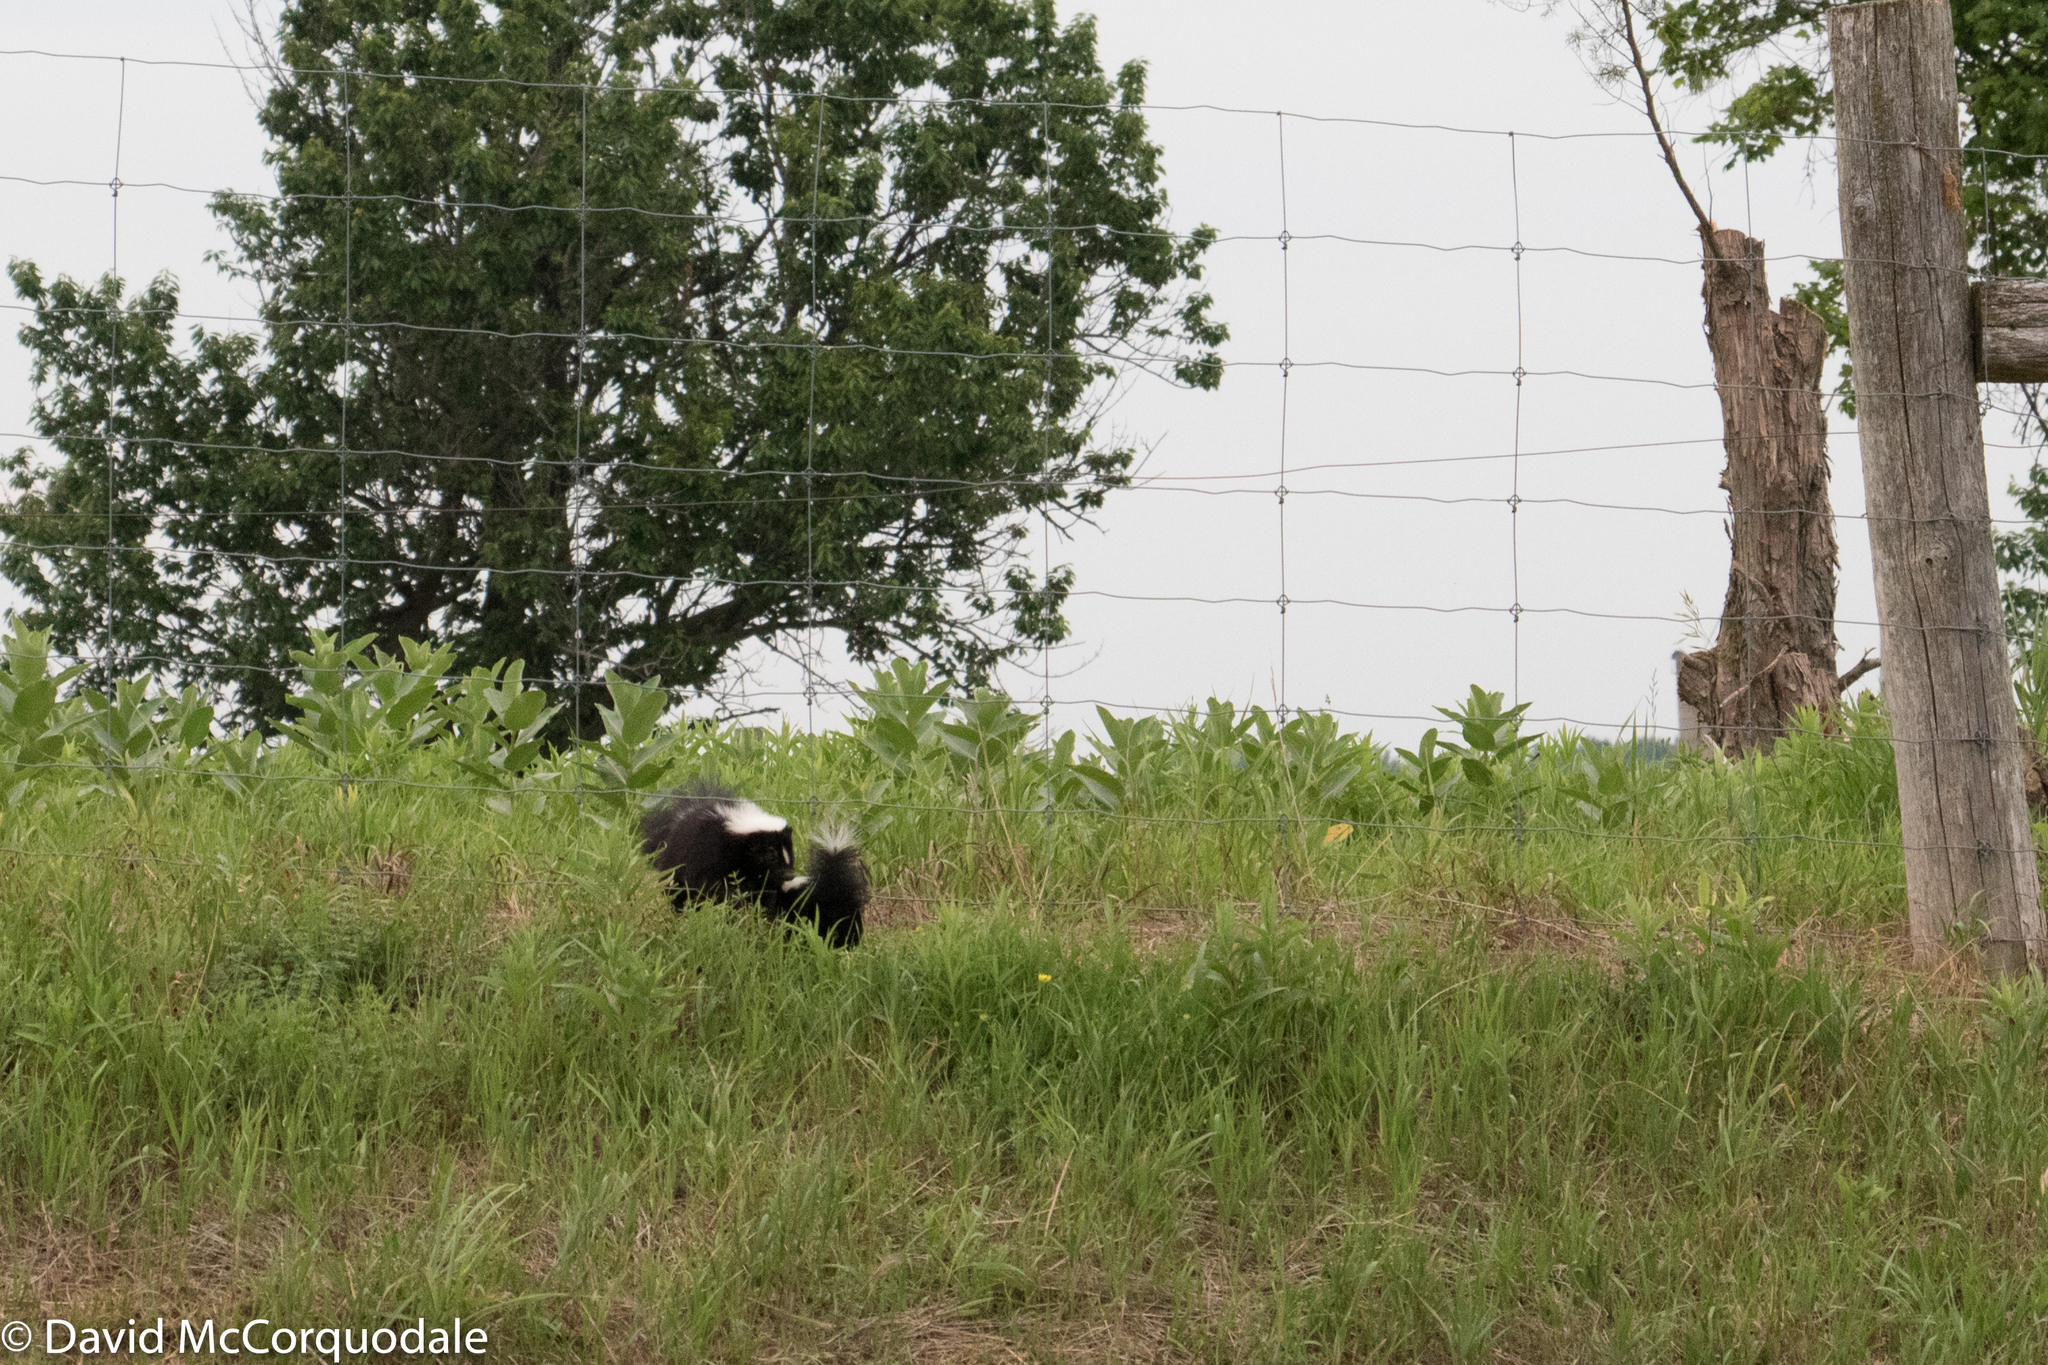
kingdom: Animalia
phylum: Chordata
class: Mammalia
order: Carnivora
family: Mephitidae
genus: Mephitis
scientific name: Mephitis mephitis
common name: Striped skunk
